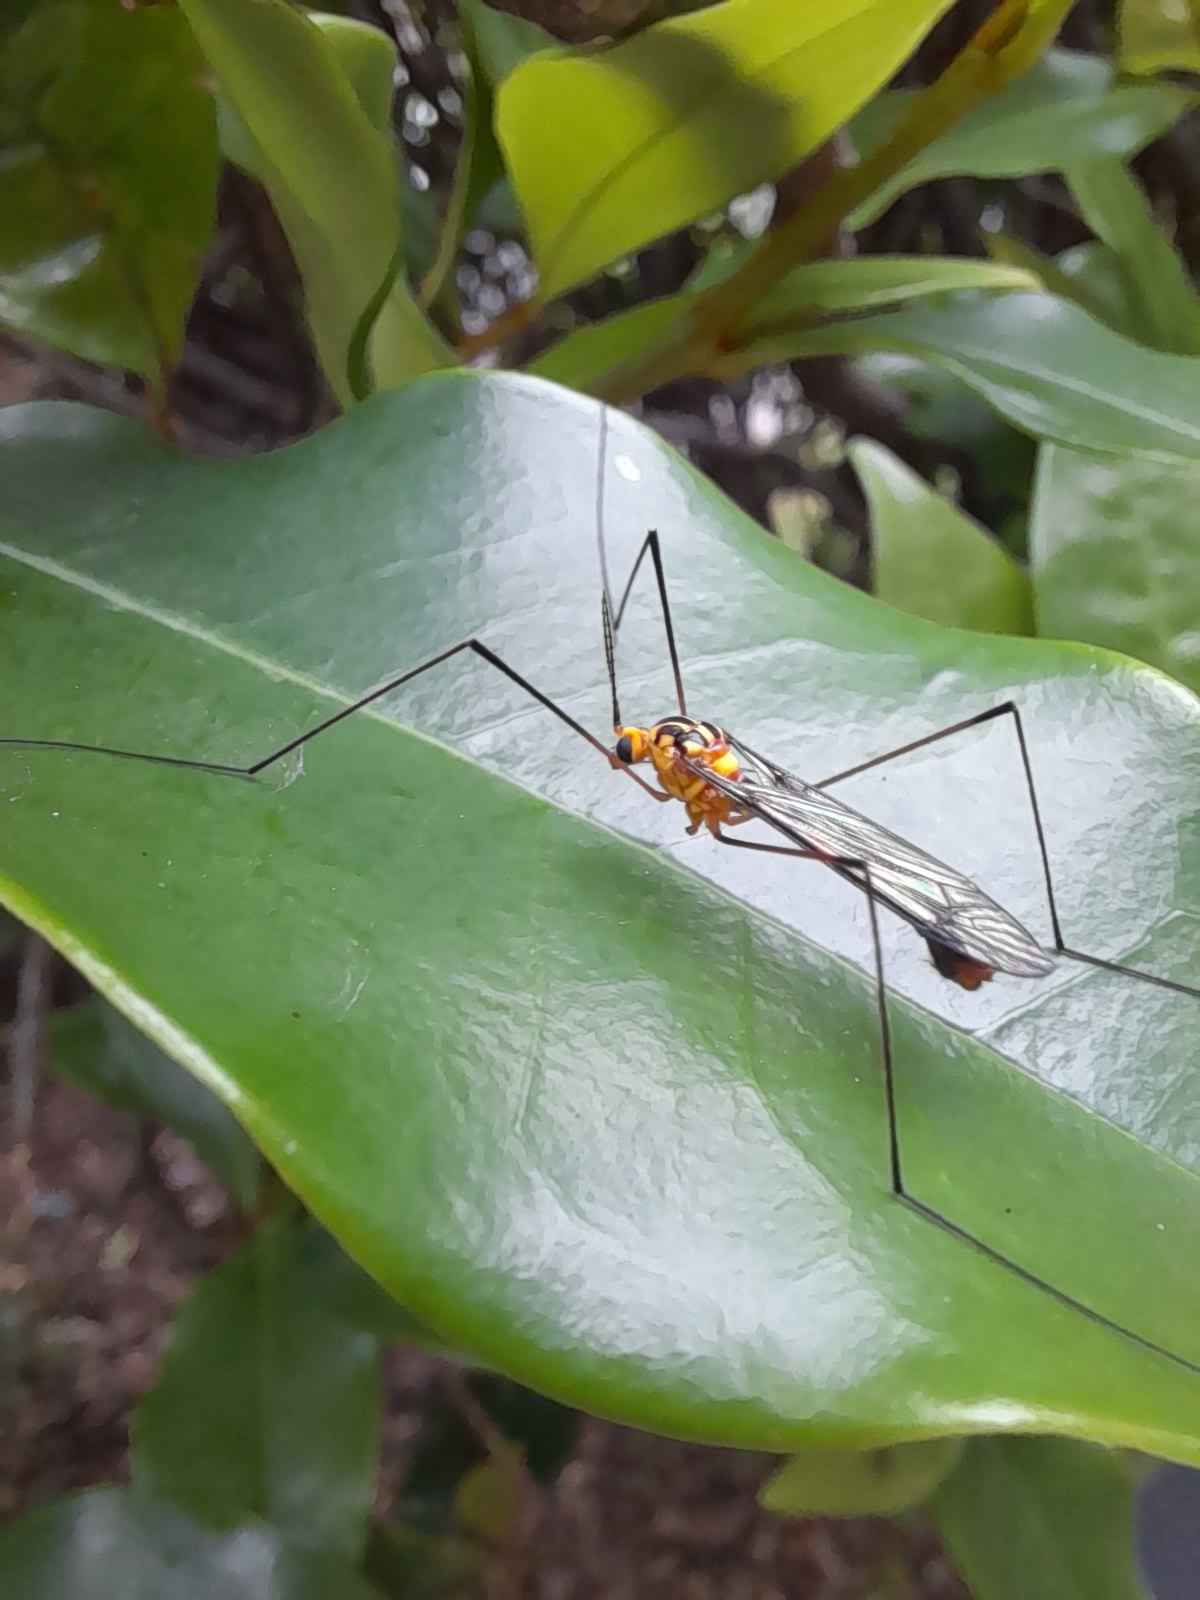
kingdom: Animalia
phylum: Arthropoda
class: Insecta
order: Diptera
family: Tipulidae
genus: Nephrotoma
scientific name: Nephrotoma australasiae
